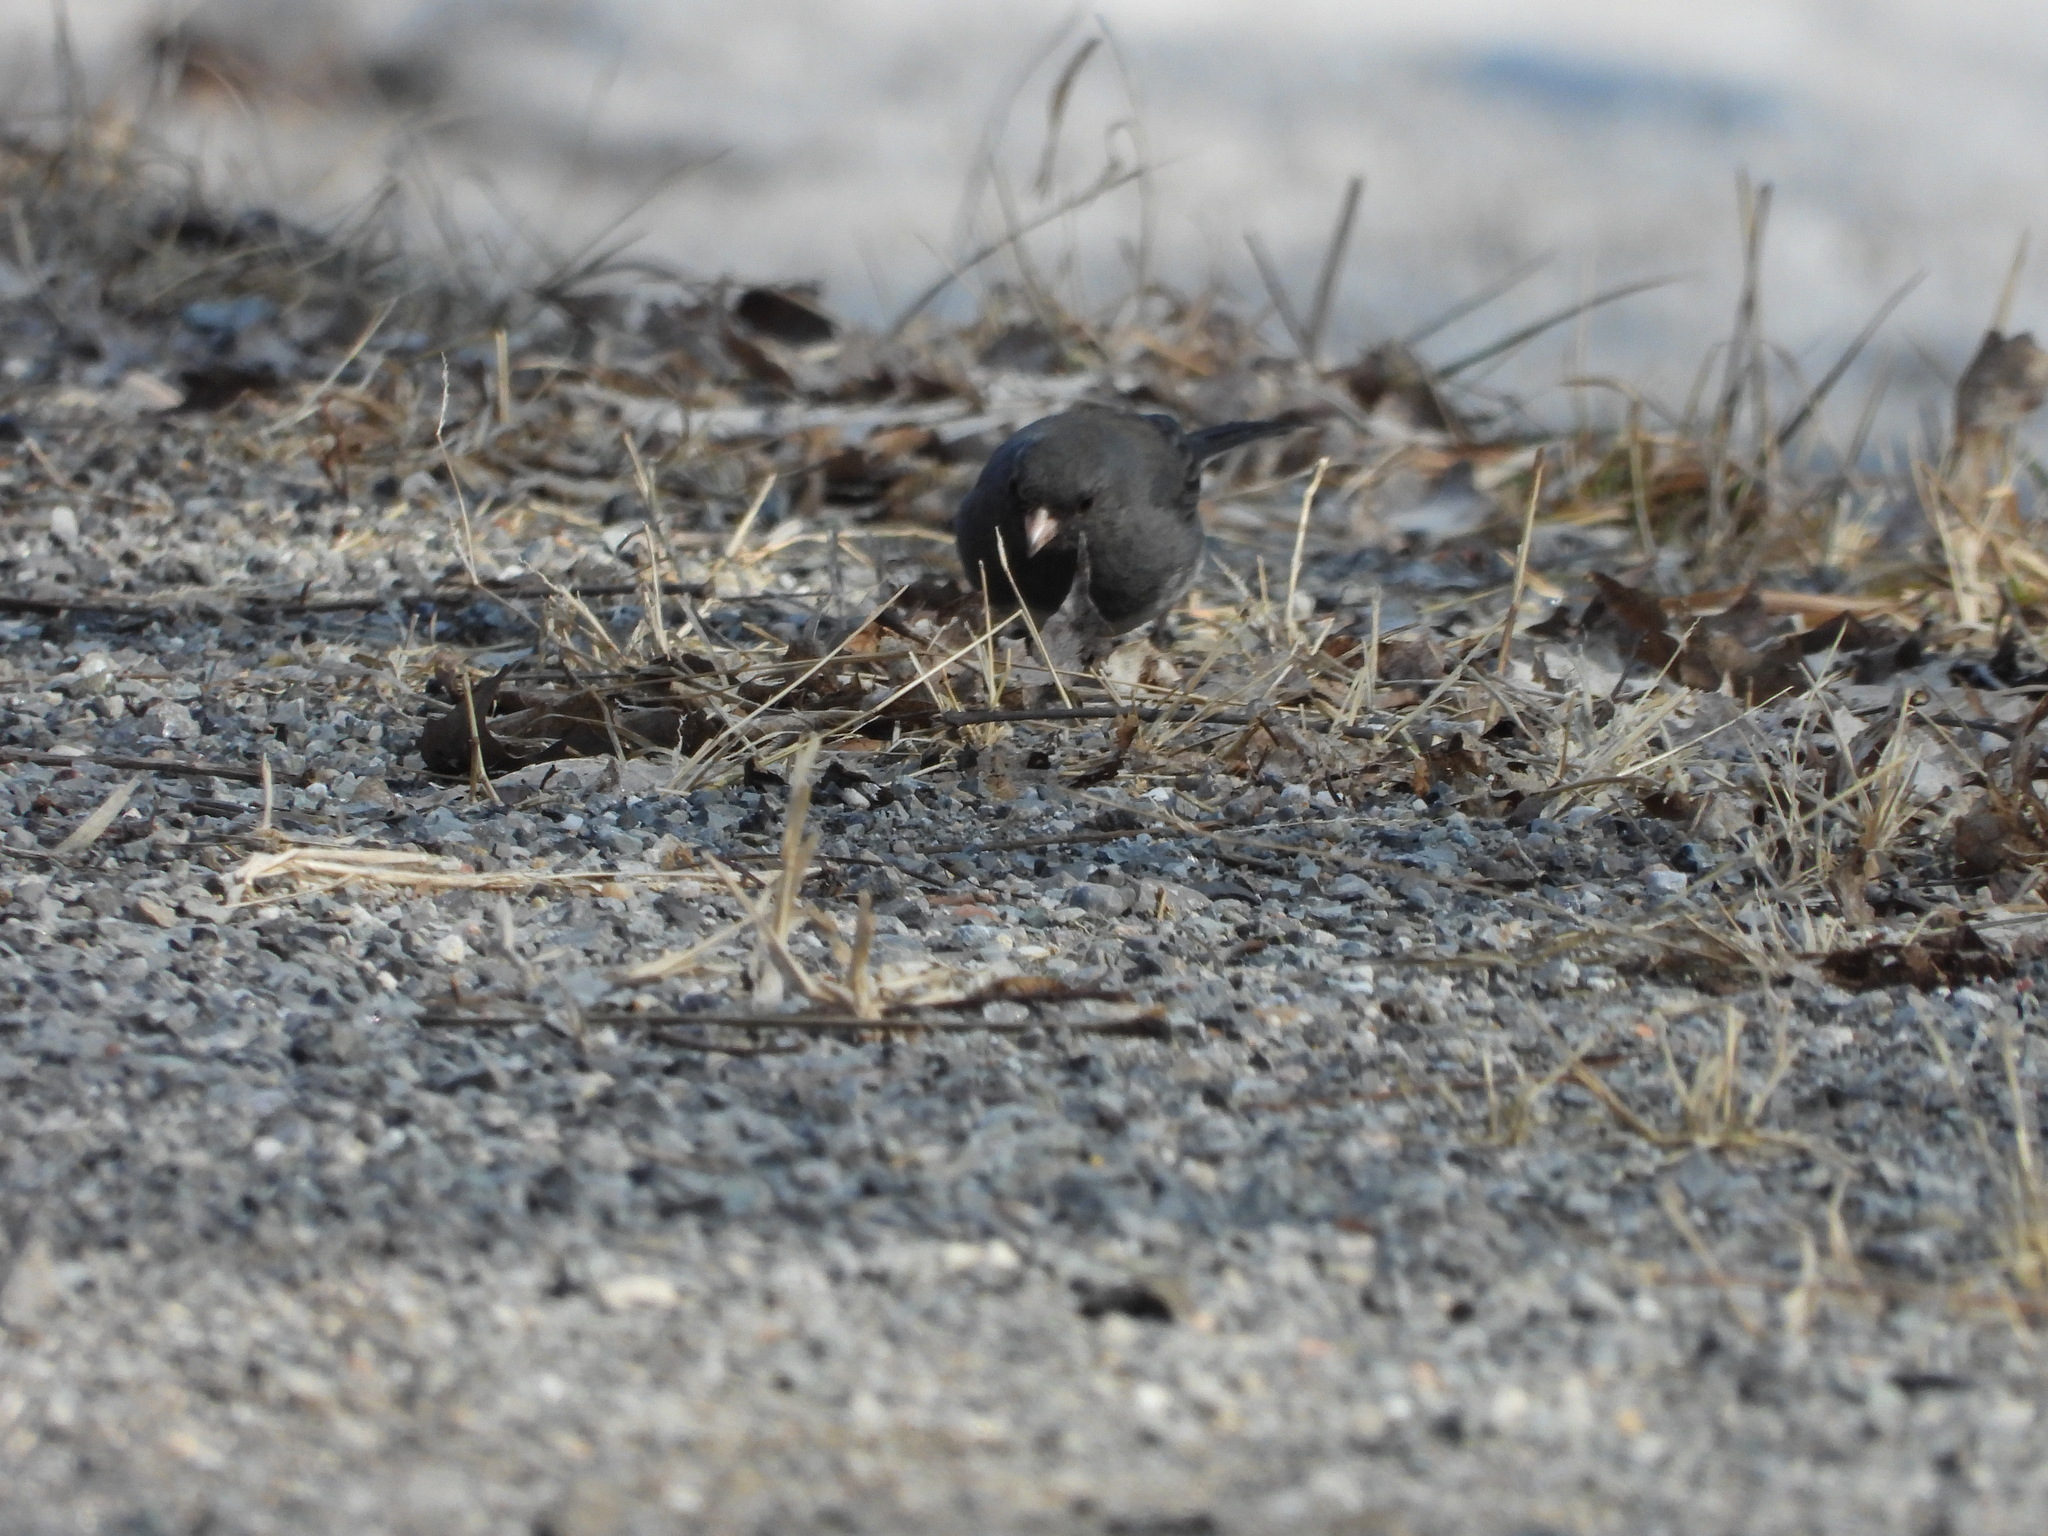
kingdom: Animalia
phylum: Chordata
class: Aves
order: Passeriformes
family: Passerellidae
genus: Junco
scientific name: Junco hyemalis
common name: Dark-eyed junco
